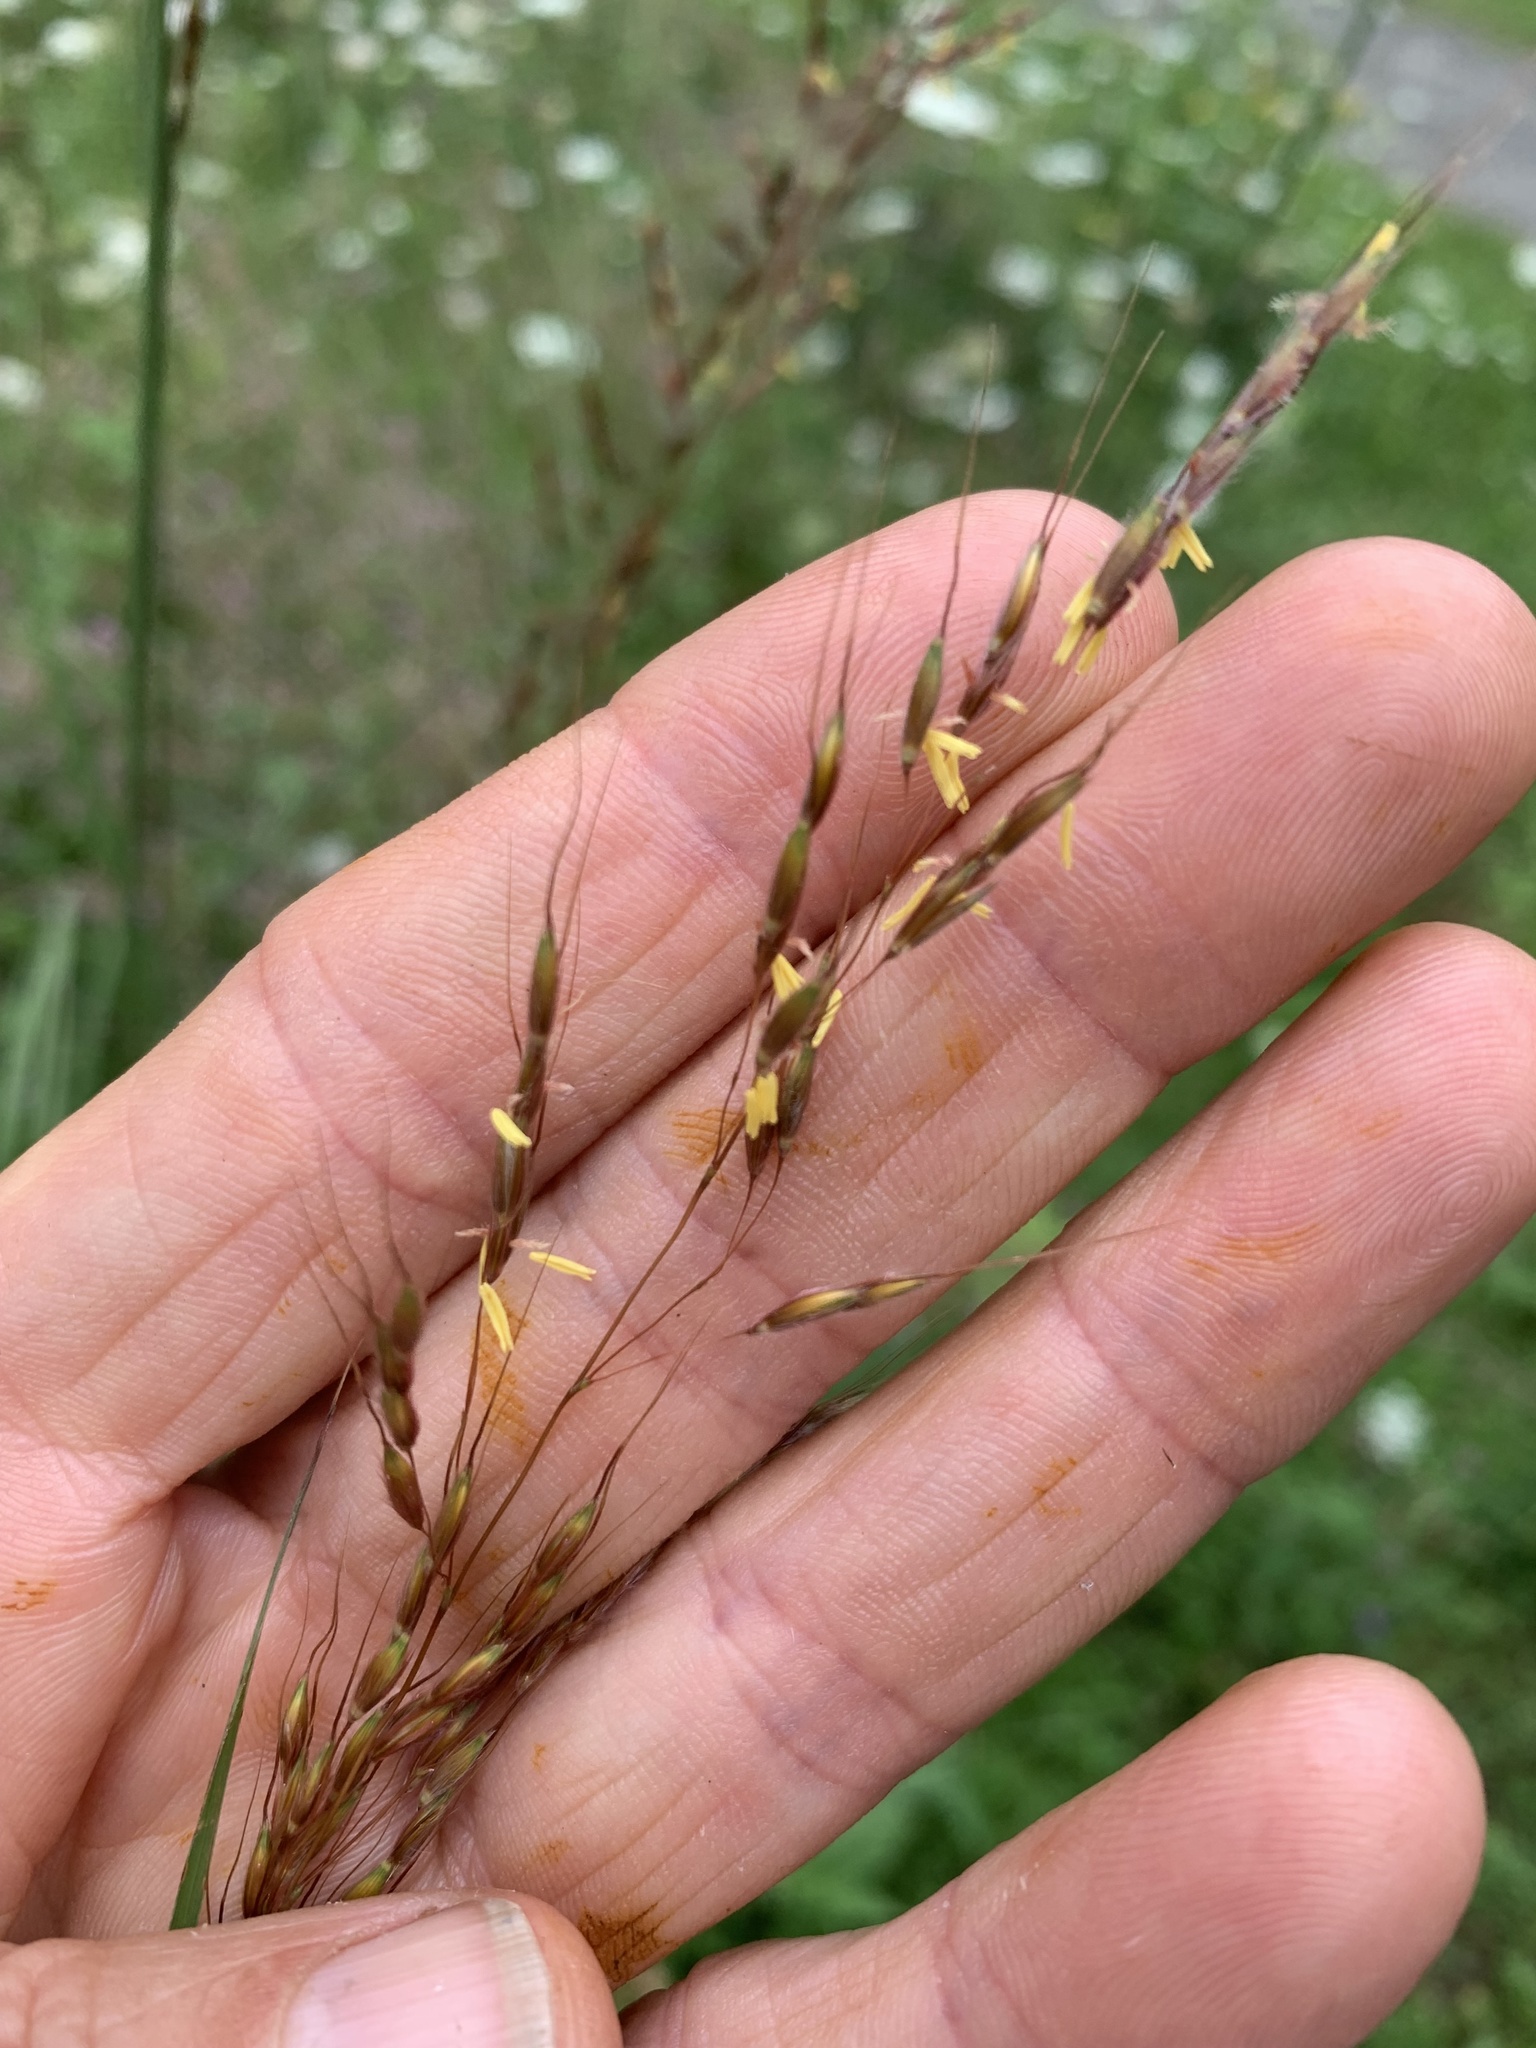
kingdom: Plantae
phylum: Tracheophyta
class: Liliopsida
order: Poales
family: Poaceae
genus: Sorghastrum
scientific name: Sorghastrum nutans
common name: Indian grass
